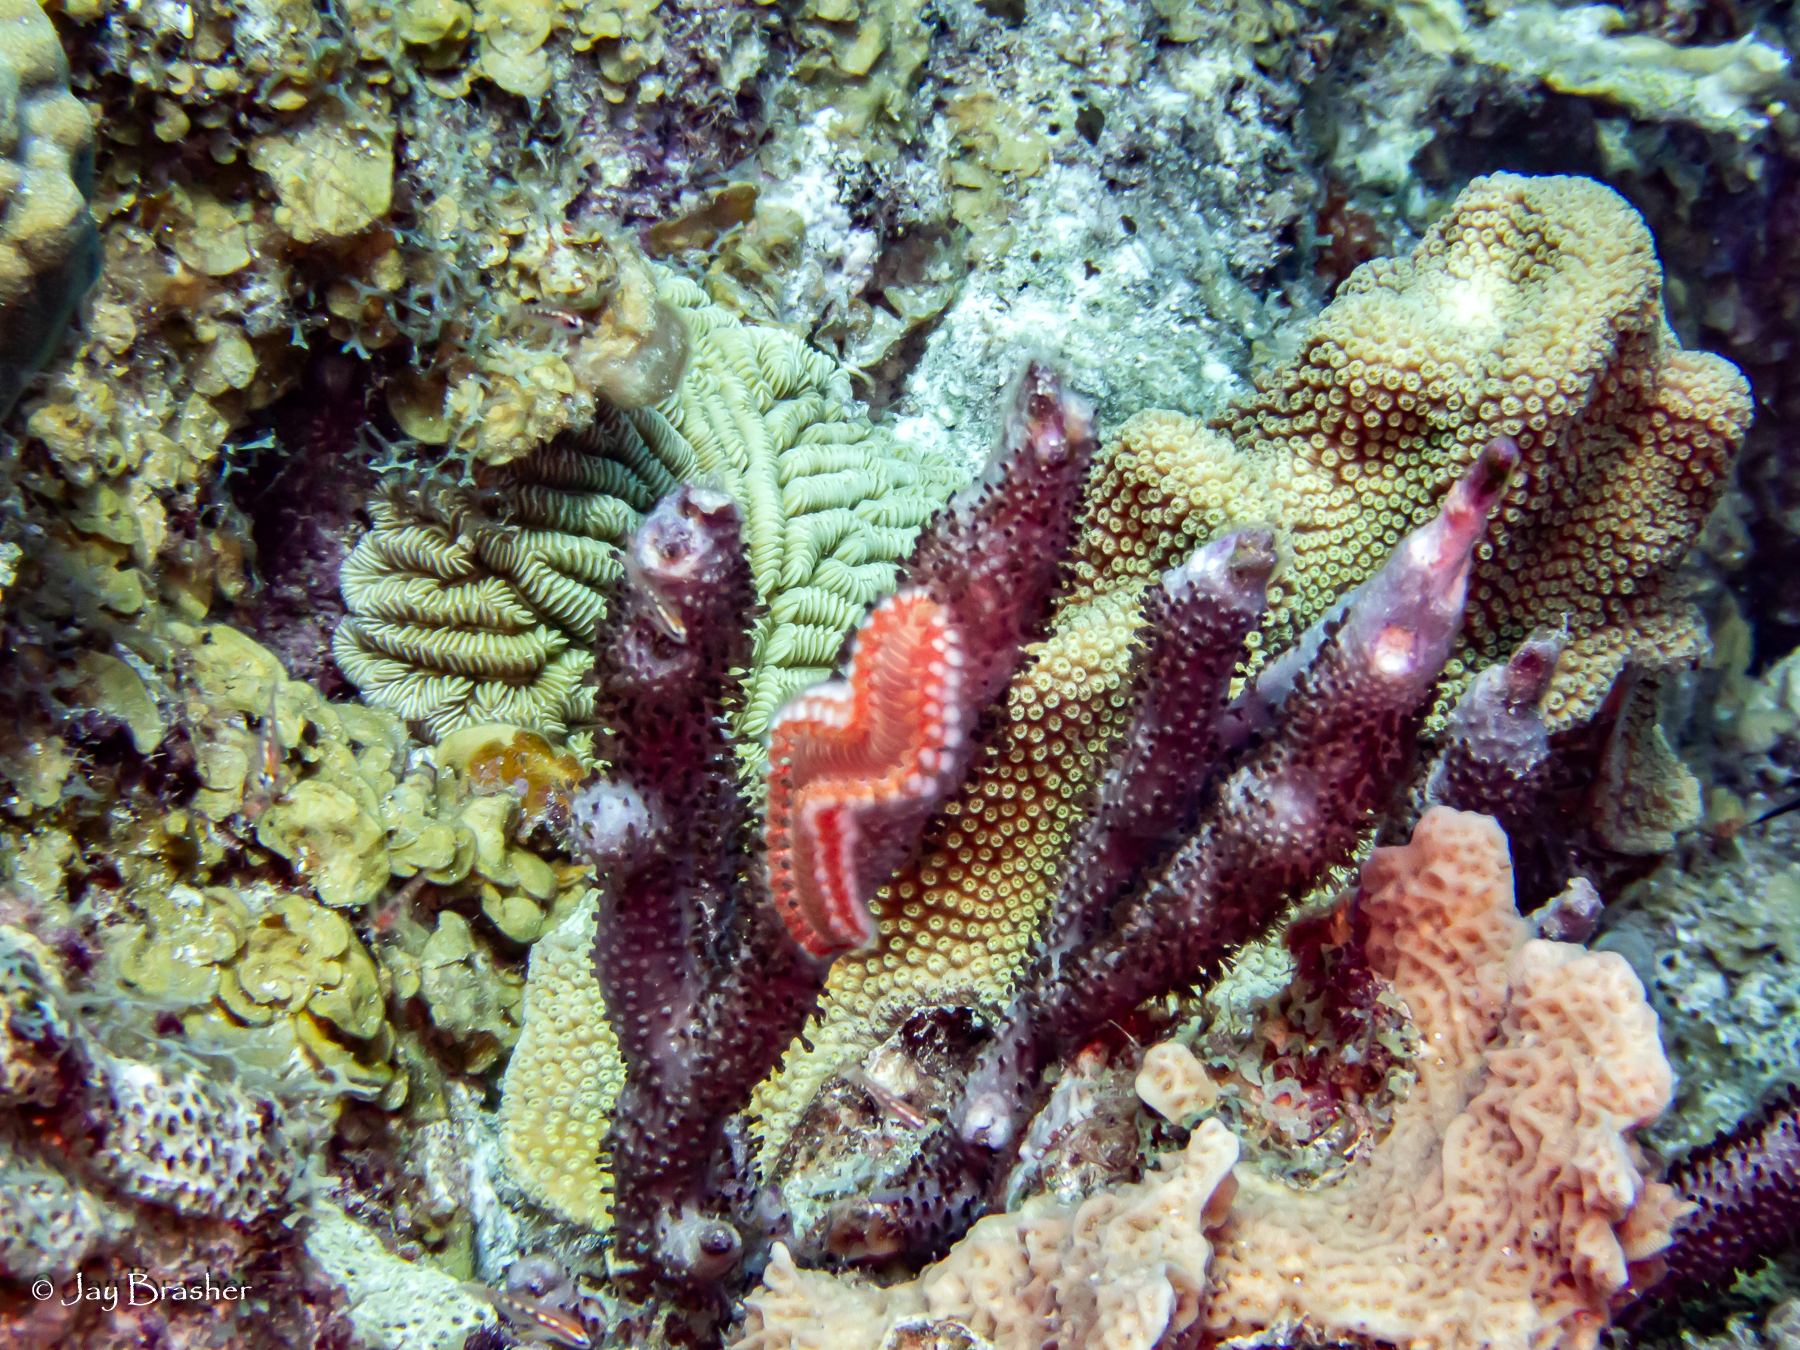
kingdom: Animalia
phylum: Annelida
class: Polychaeta
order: Amphinomida
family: Amphinomidae
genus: Hermodice
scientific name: Hermodice carunculata
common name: Bearded fireworm
